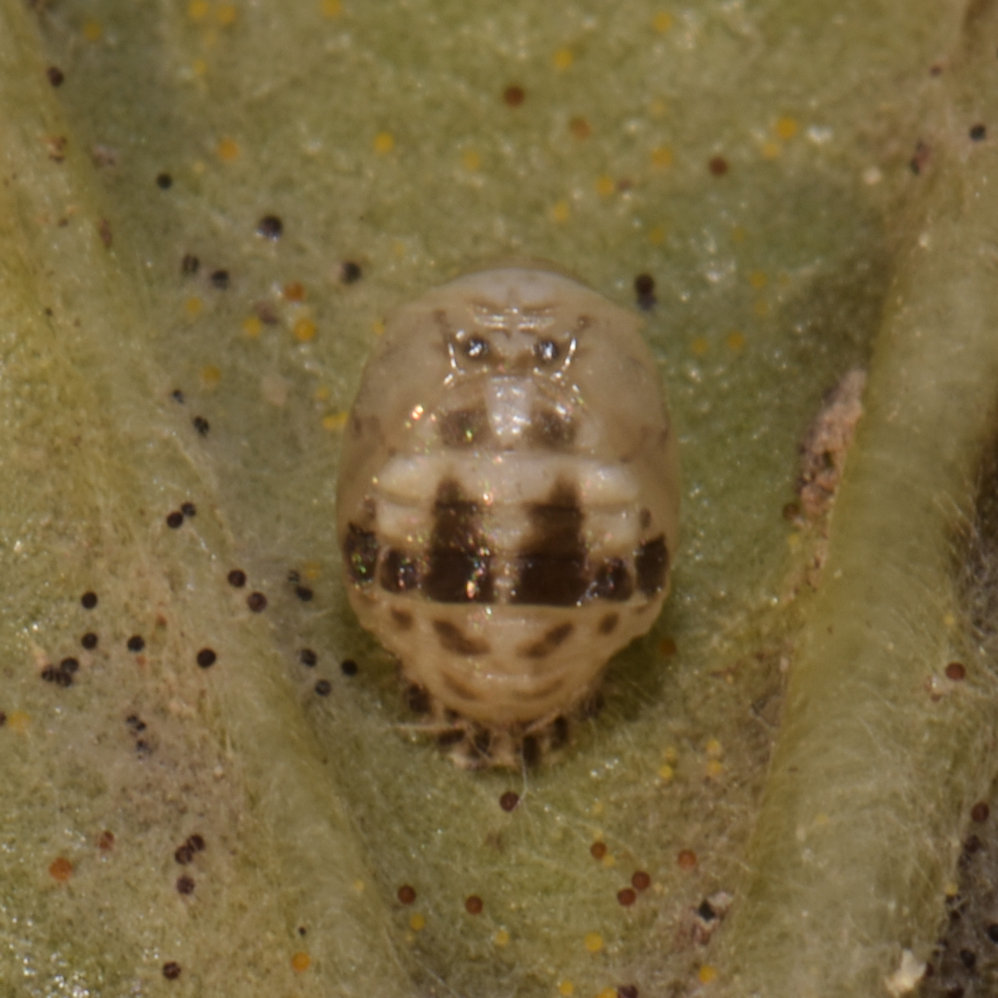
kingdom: Animalia
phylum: Arthropoda
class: Insecta
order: Coleoptera
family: Coccinellidae
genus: Psyllobora
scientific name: Psyllobora vigintimaculata
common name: Ladybird beetle
